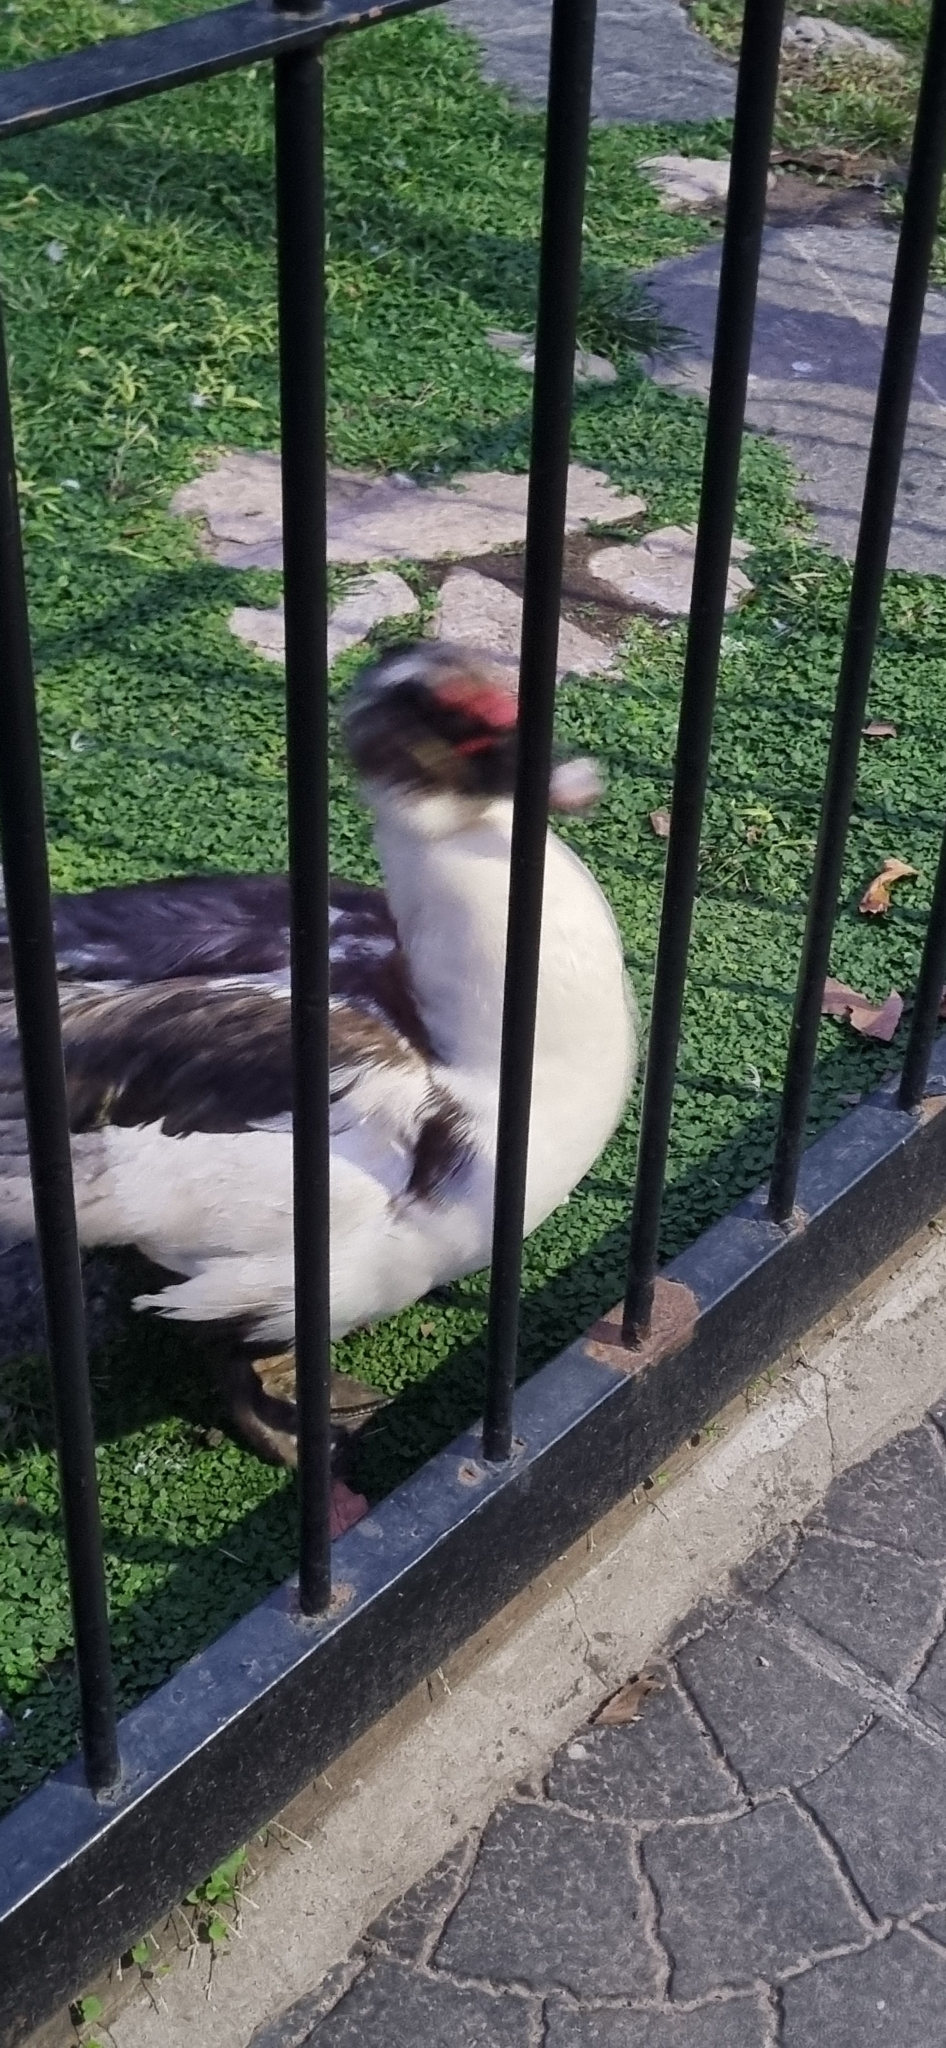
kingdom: Animalia
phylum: Chordata
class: Aves
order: Anseriformes
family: Anatidae
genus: Cairina
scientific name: Cairina moschata
